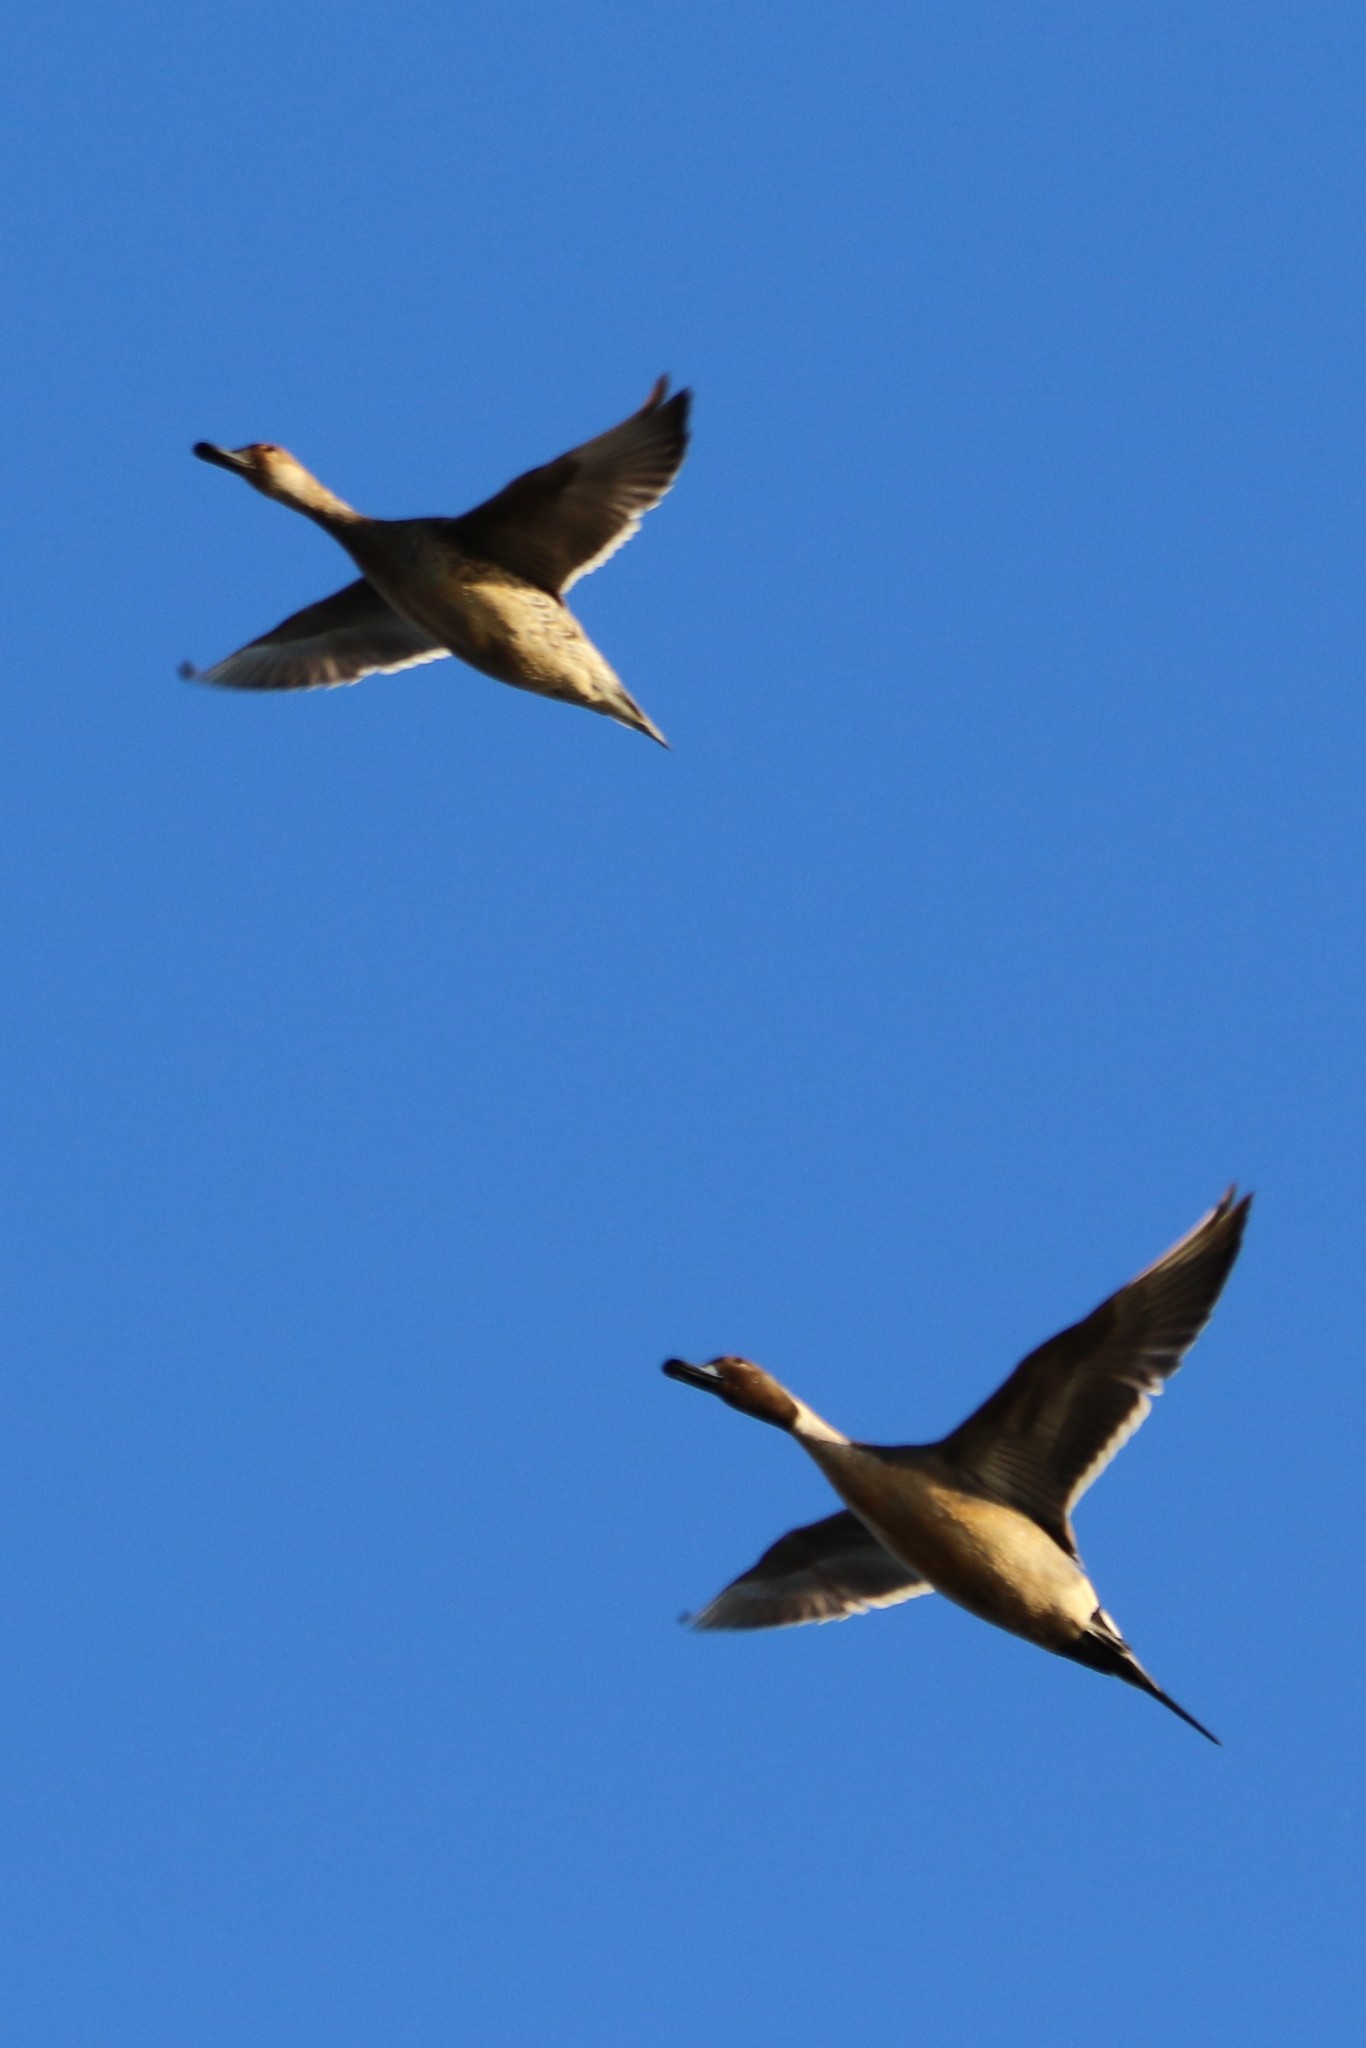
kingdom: Animalia
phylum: Chordata
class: Aves
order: Anseriformes
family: Anatidae
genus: Anas
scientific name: Anas acuta
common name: Northern pintail
